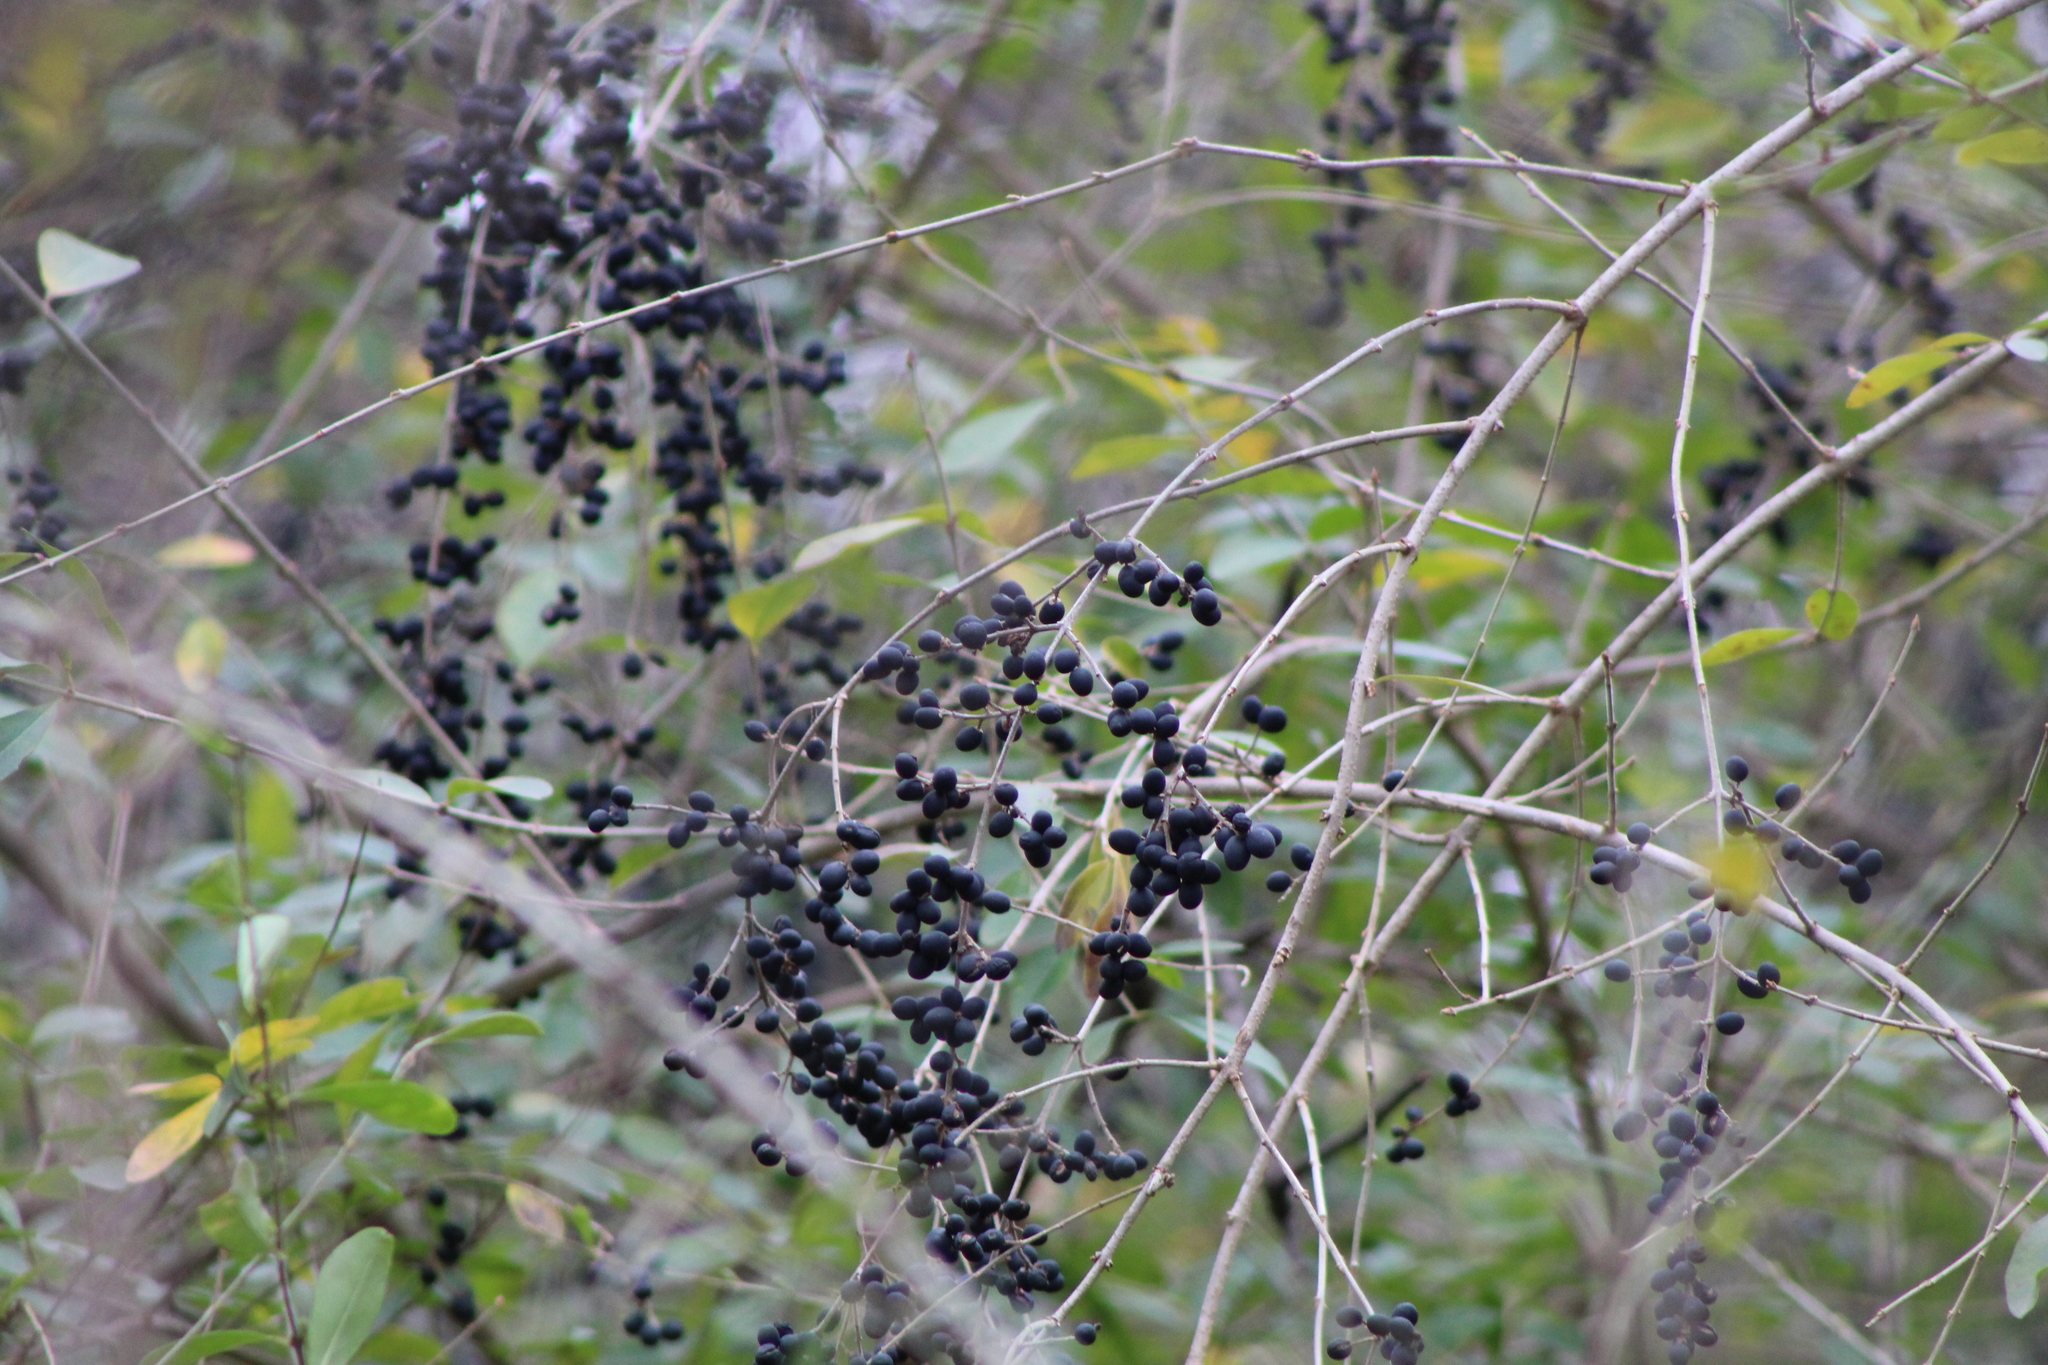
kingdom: Plantae
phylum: Tracheophyta
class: Magnoliopsida
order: Lamiales
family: Oleaceae
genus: Ligustrum
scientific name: Ligustrum quihoui
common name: Waxyleaf privet
